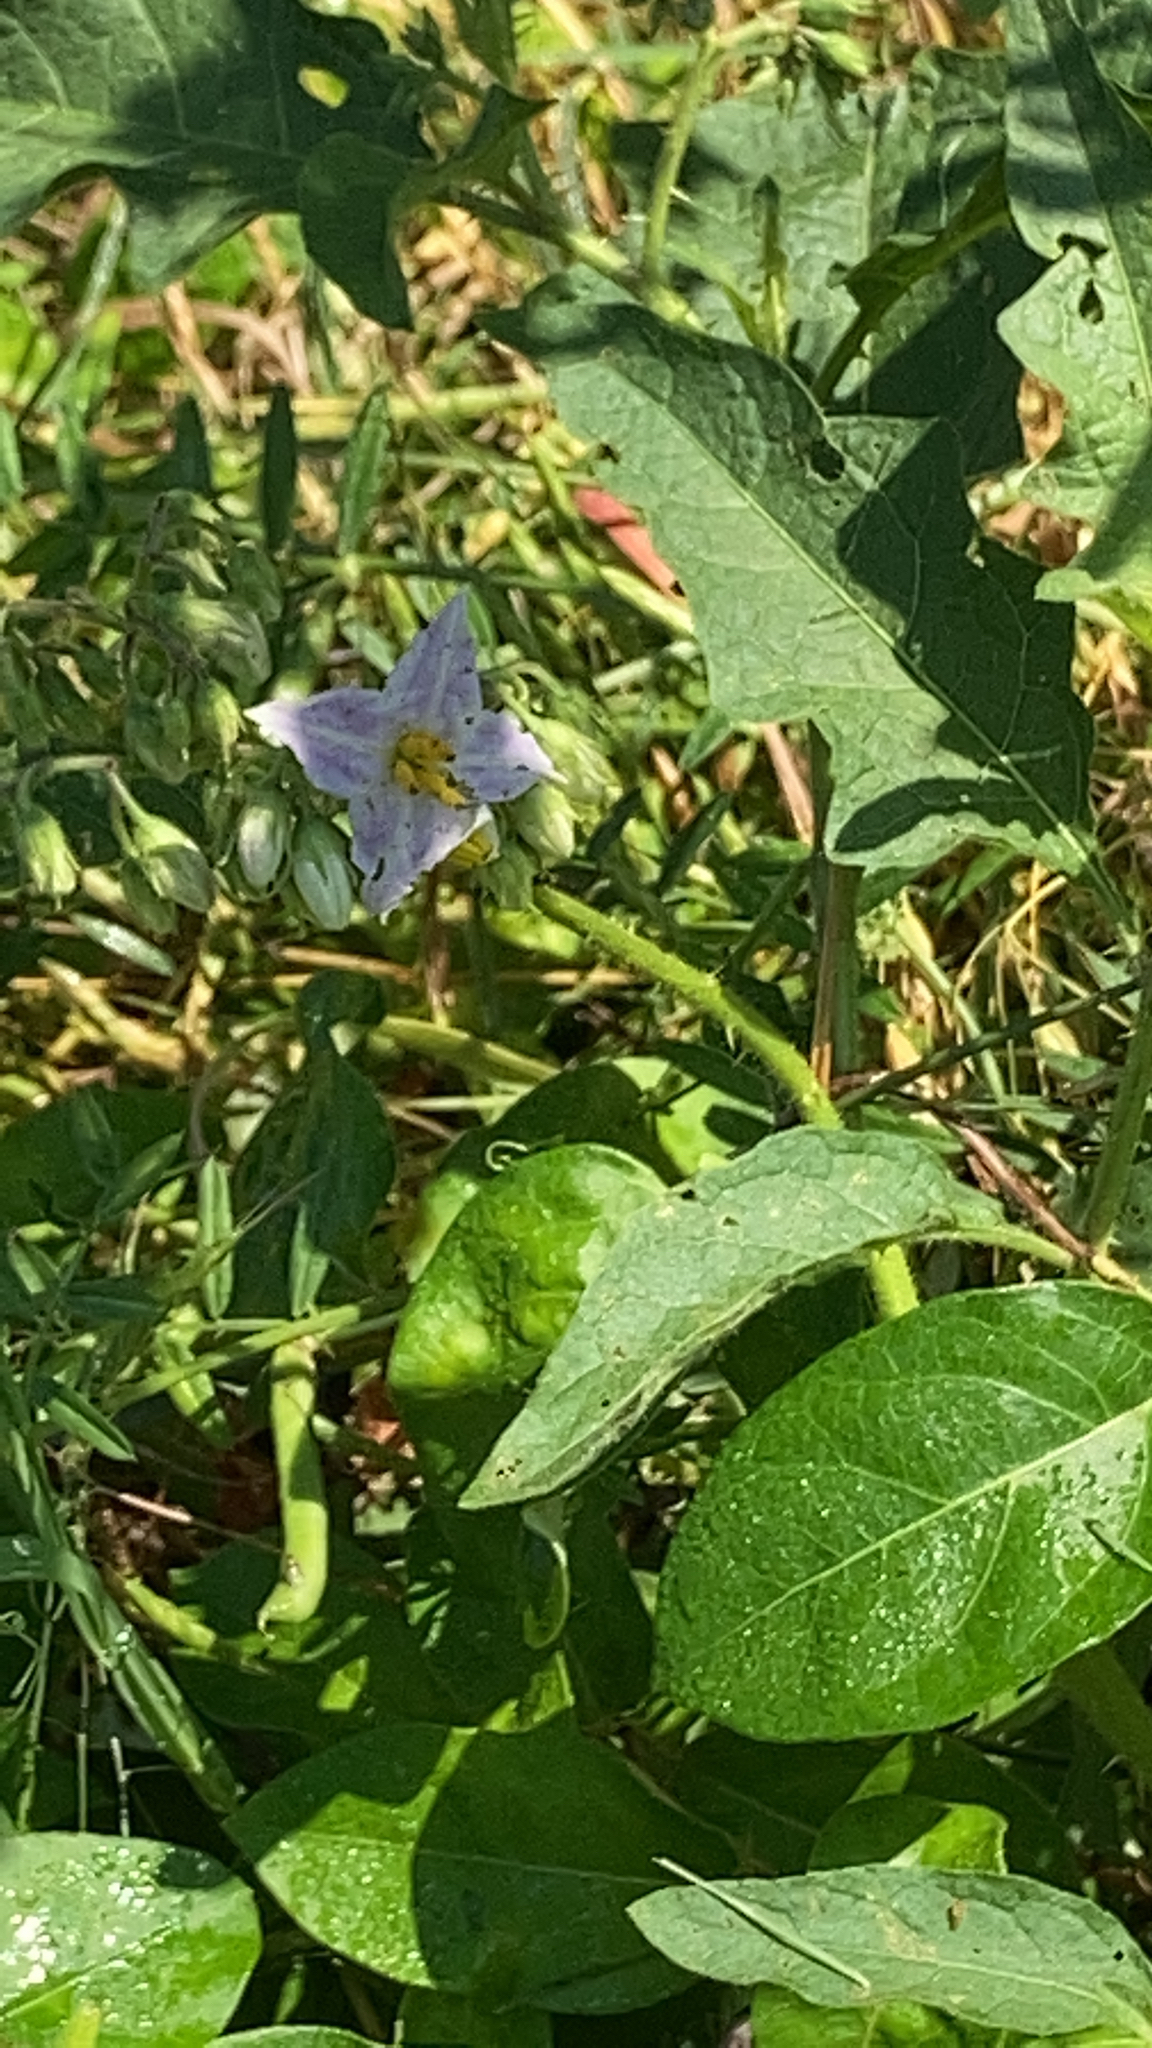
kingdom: Plantae
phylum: Tracheophyta
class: Magnoliopsida
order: Solanales
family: Solanaceae
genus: Solanum
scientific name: Solanum carolinense
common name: Horse-nettle
